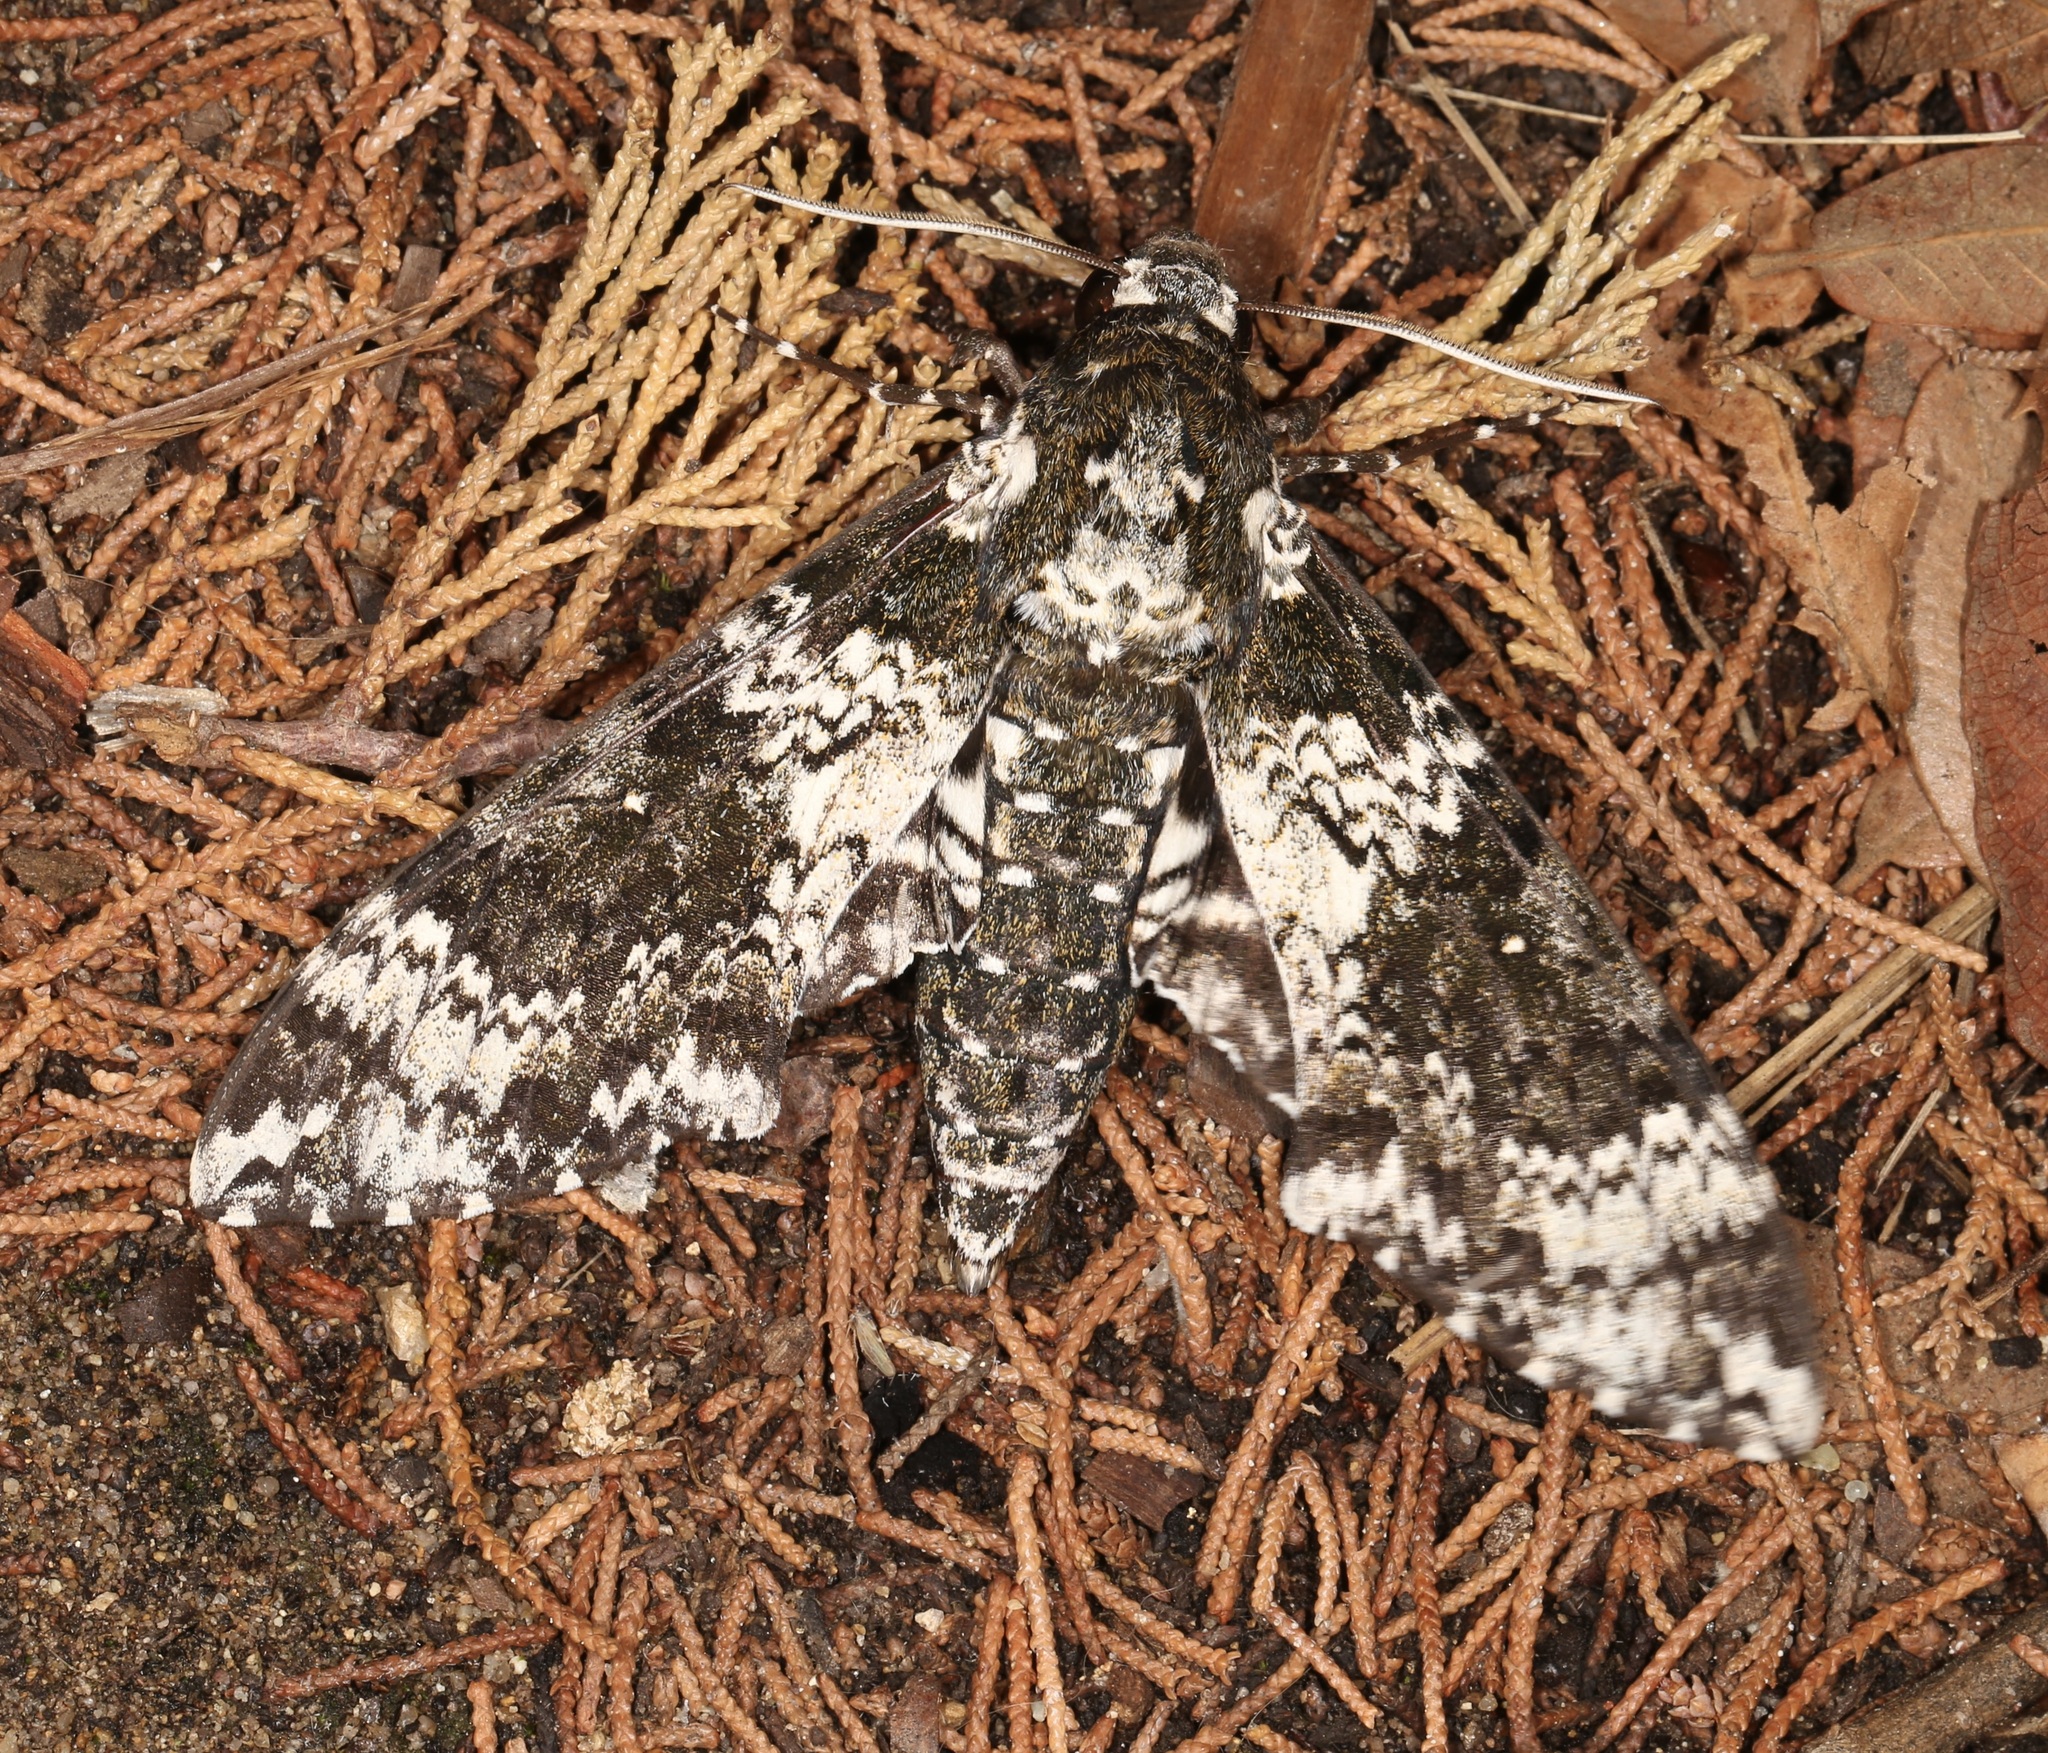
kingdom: Animalia
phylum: Arthropoda
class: Insecta
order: Lepidoptera
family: Sphingidae
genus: Manduca
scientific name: Manduca rustica
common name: Rustic sphinx
